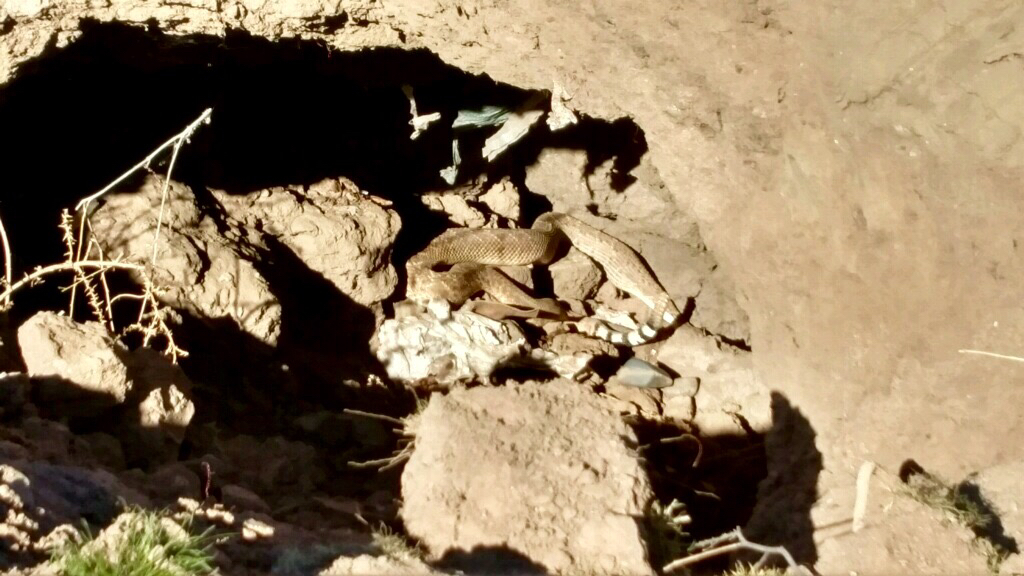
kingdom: Animalia
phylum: Chordata
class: Squamata
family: Viperidae
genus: Crotalus
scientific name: Crotalus atrox
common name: Western diamond-backed rattlesnake
